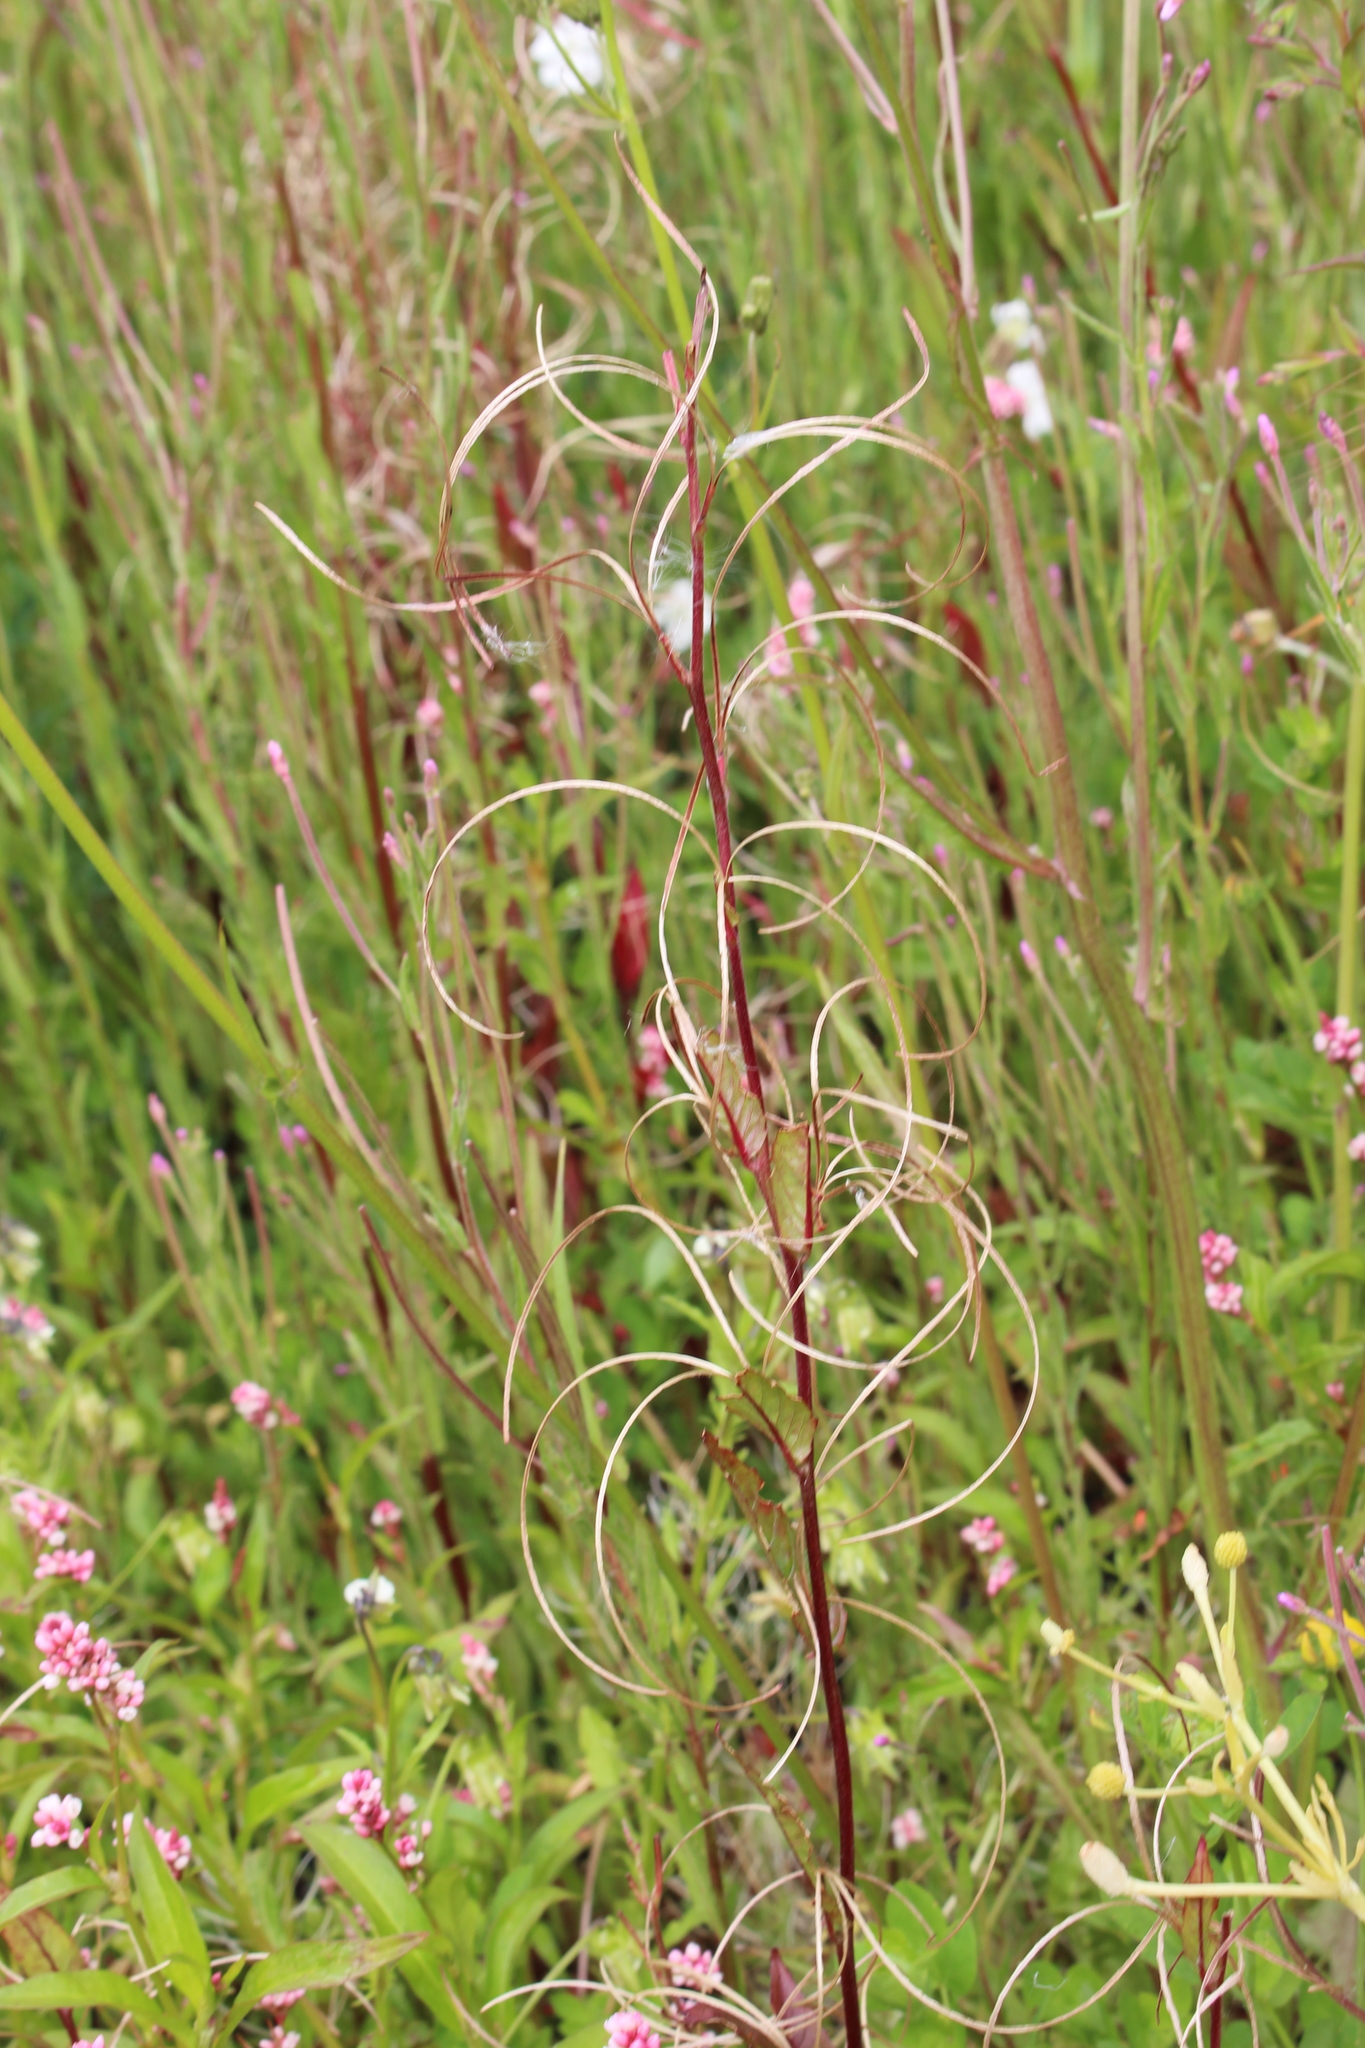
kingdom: Plantae
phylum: Tracheophyta
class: Magnoliopsida
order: Myrtales
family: Onagraceae
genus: Epilobium
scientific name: Epilobium ciliatum
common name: American willowherb
